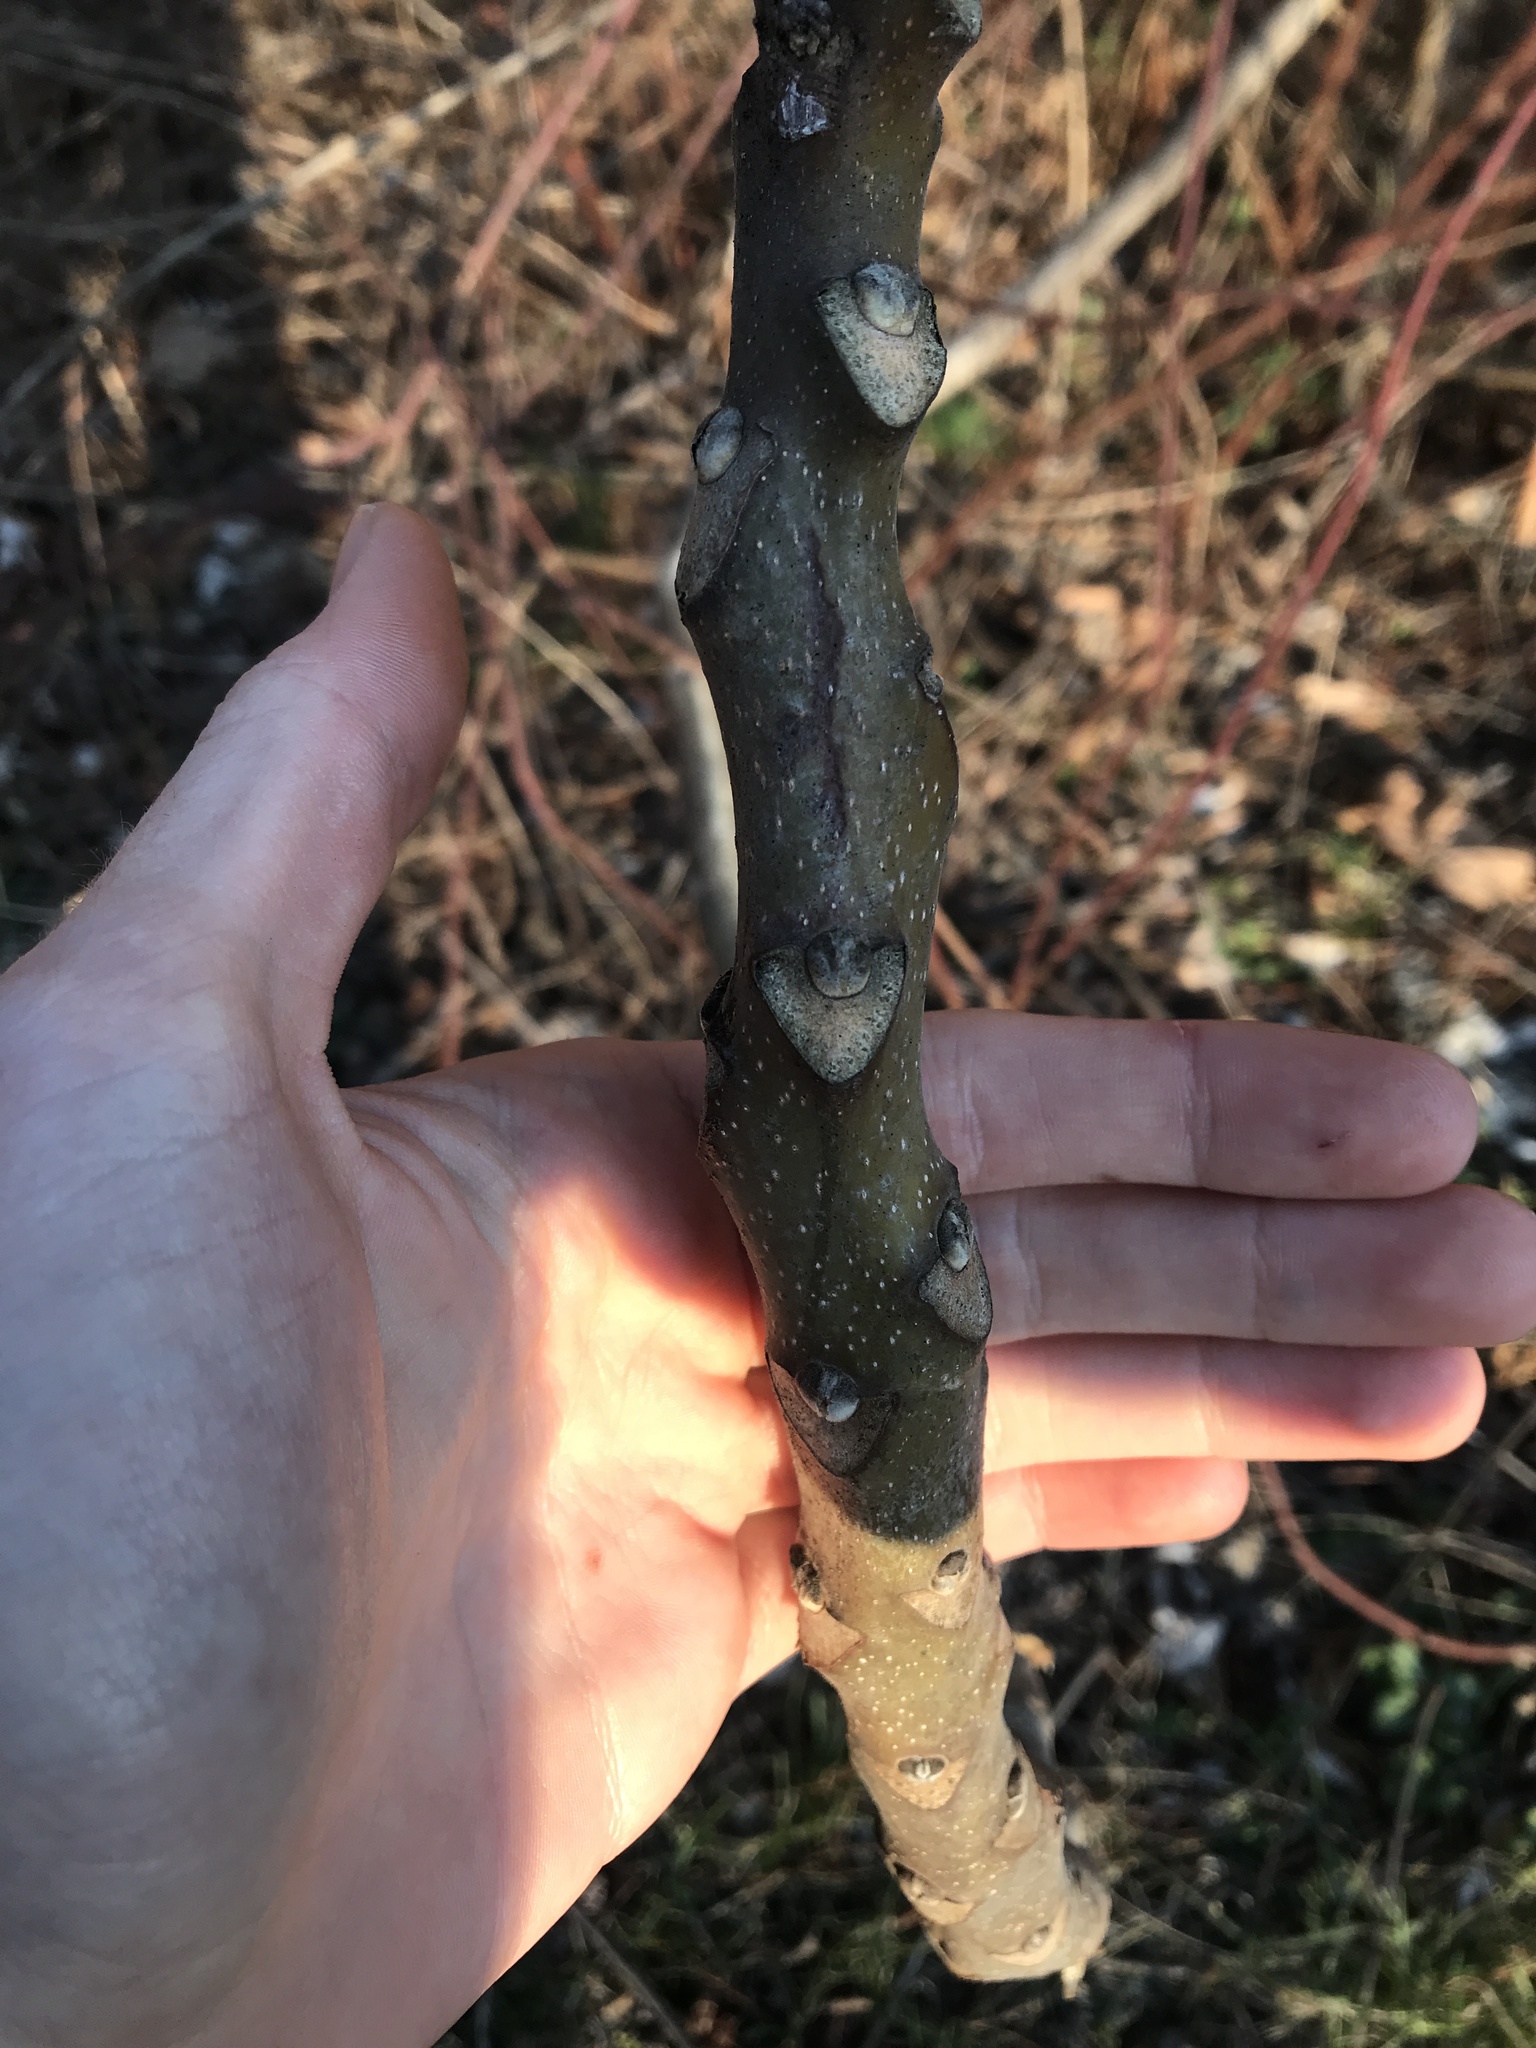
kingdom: Plantae
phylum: Tracheophyta
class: Magnoliopsida
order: Sapindales
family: Simaroubaceae
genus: Ailanthus
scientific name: Ailanthus altissima
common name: Tree-of-heaven
